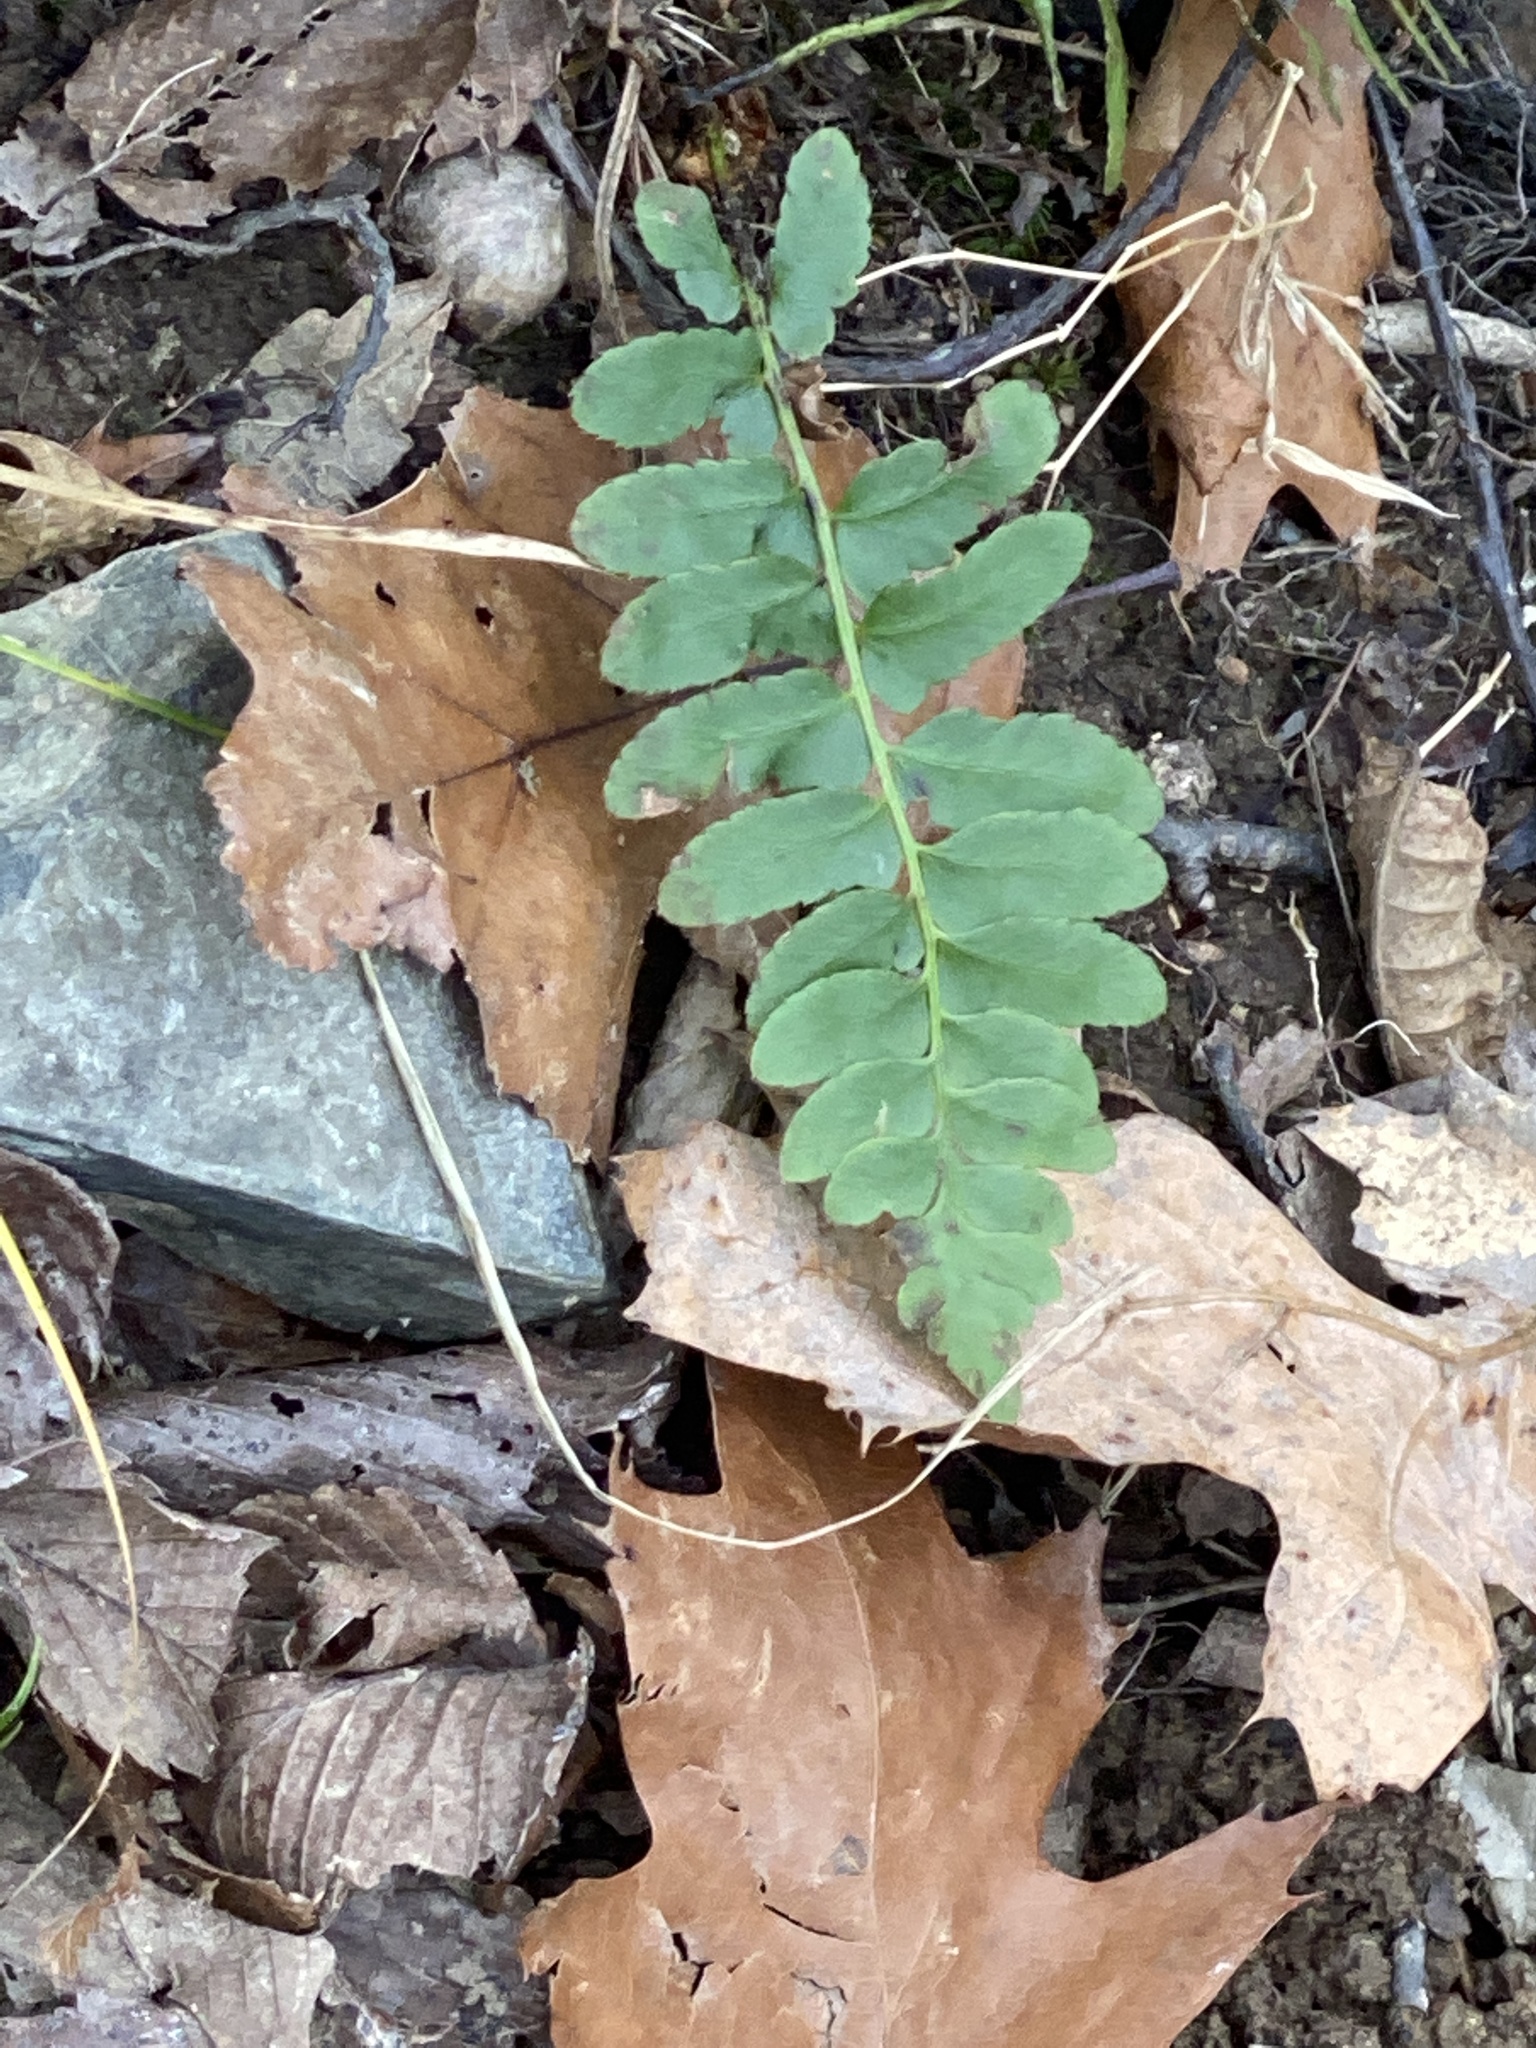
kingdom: Plantae
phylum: Tracheophyta
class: Polypodiopsida
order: Polypodiales
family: Dryopteridaceae
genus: Polystichum
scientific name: Polystichum acrostichoides
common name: Christmas fern
